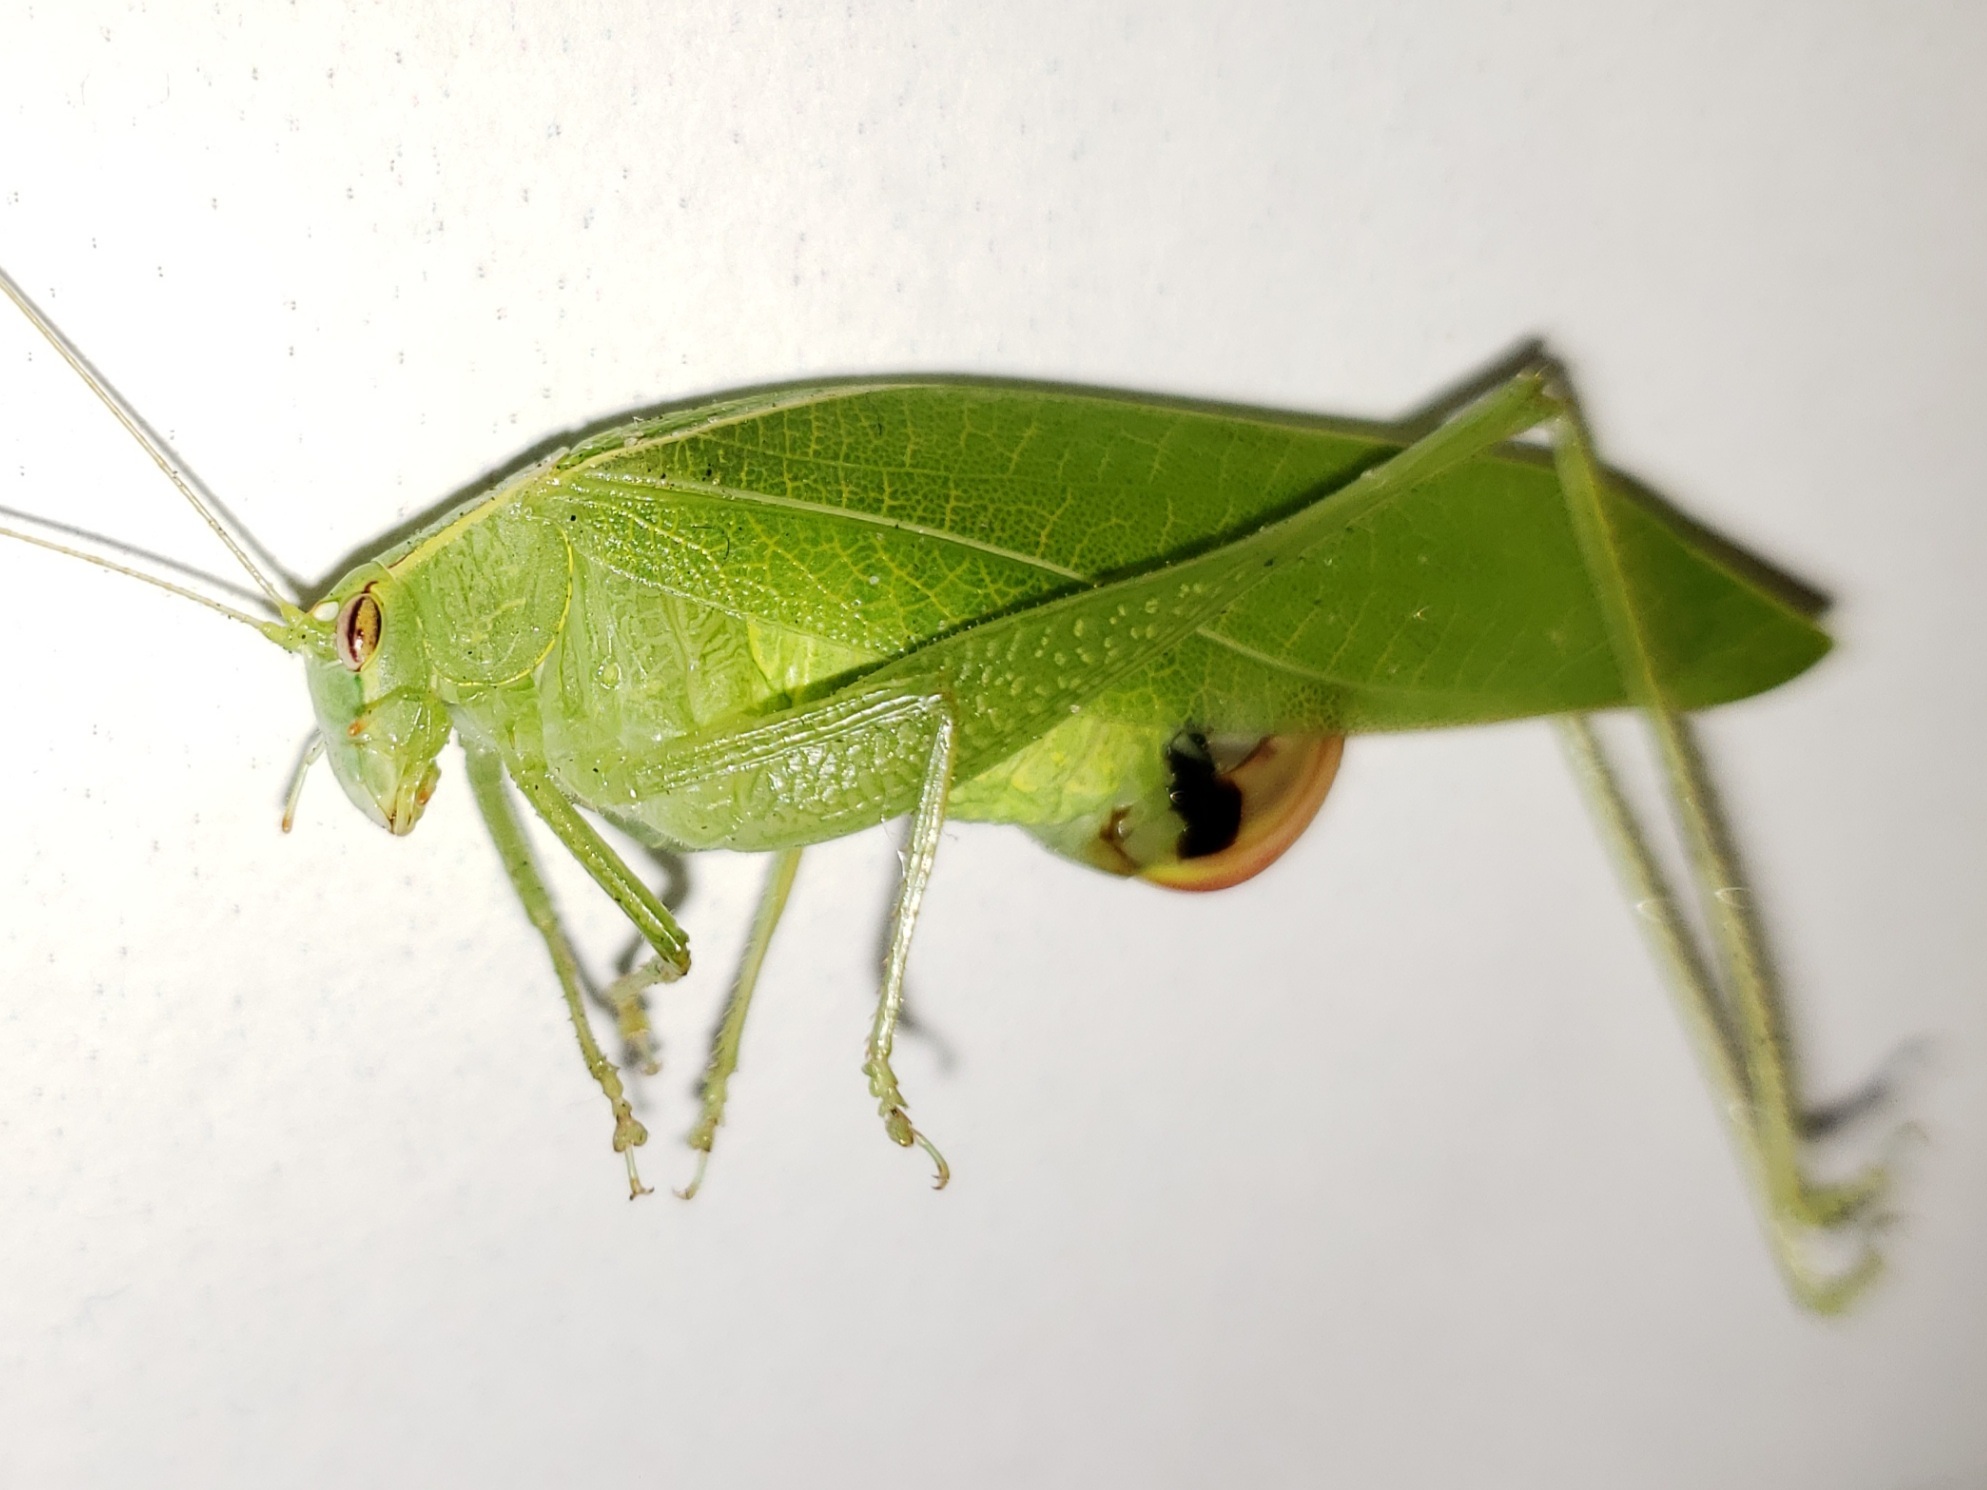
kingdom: Animalia
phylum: Arthropoda
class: Insecta
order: Orthoptera
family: Tettigoniidae
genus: Montezumina
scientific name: Montezumina modesta
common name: Modest katydid
